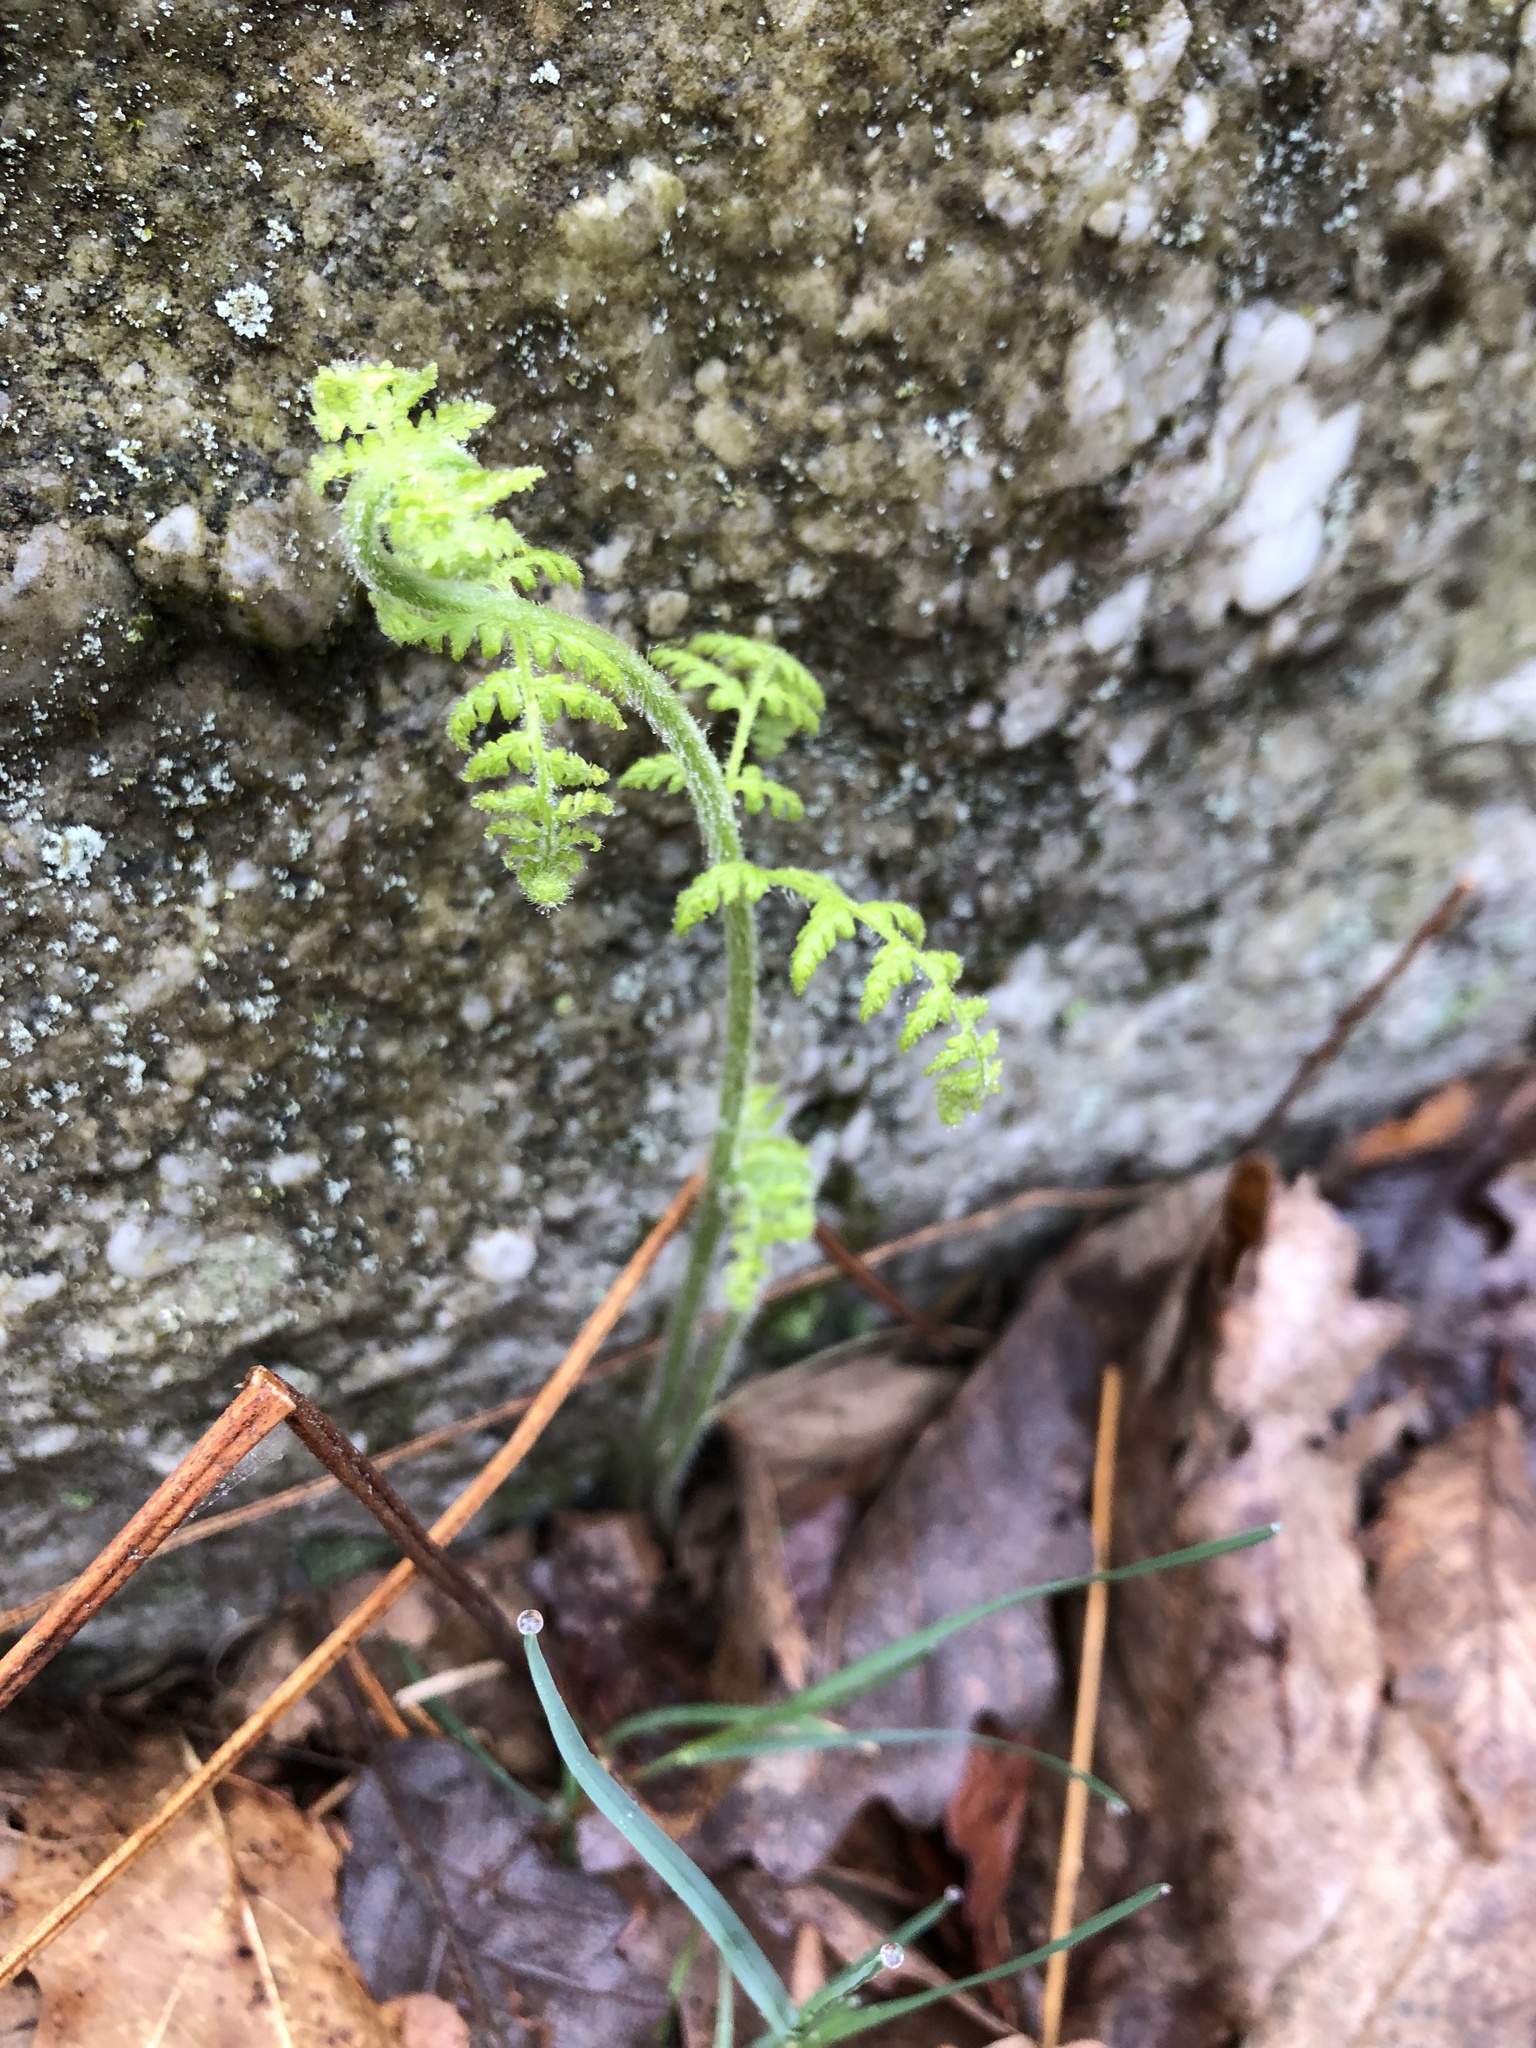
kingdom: Plantae
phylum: Tracheophyta
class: Polypodiopsida
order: Polypodiales
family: Dennstaedtiaceae
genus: Sitobolium
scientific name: Sitobolium punctilobum
